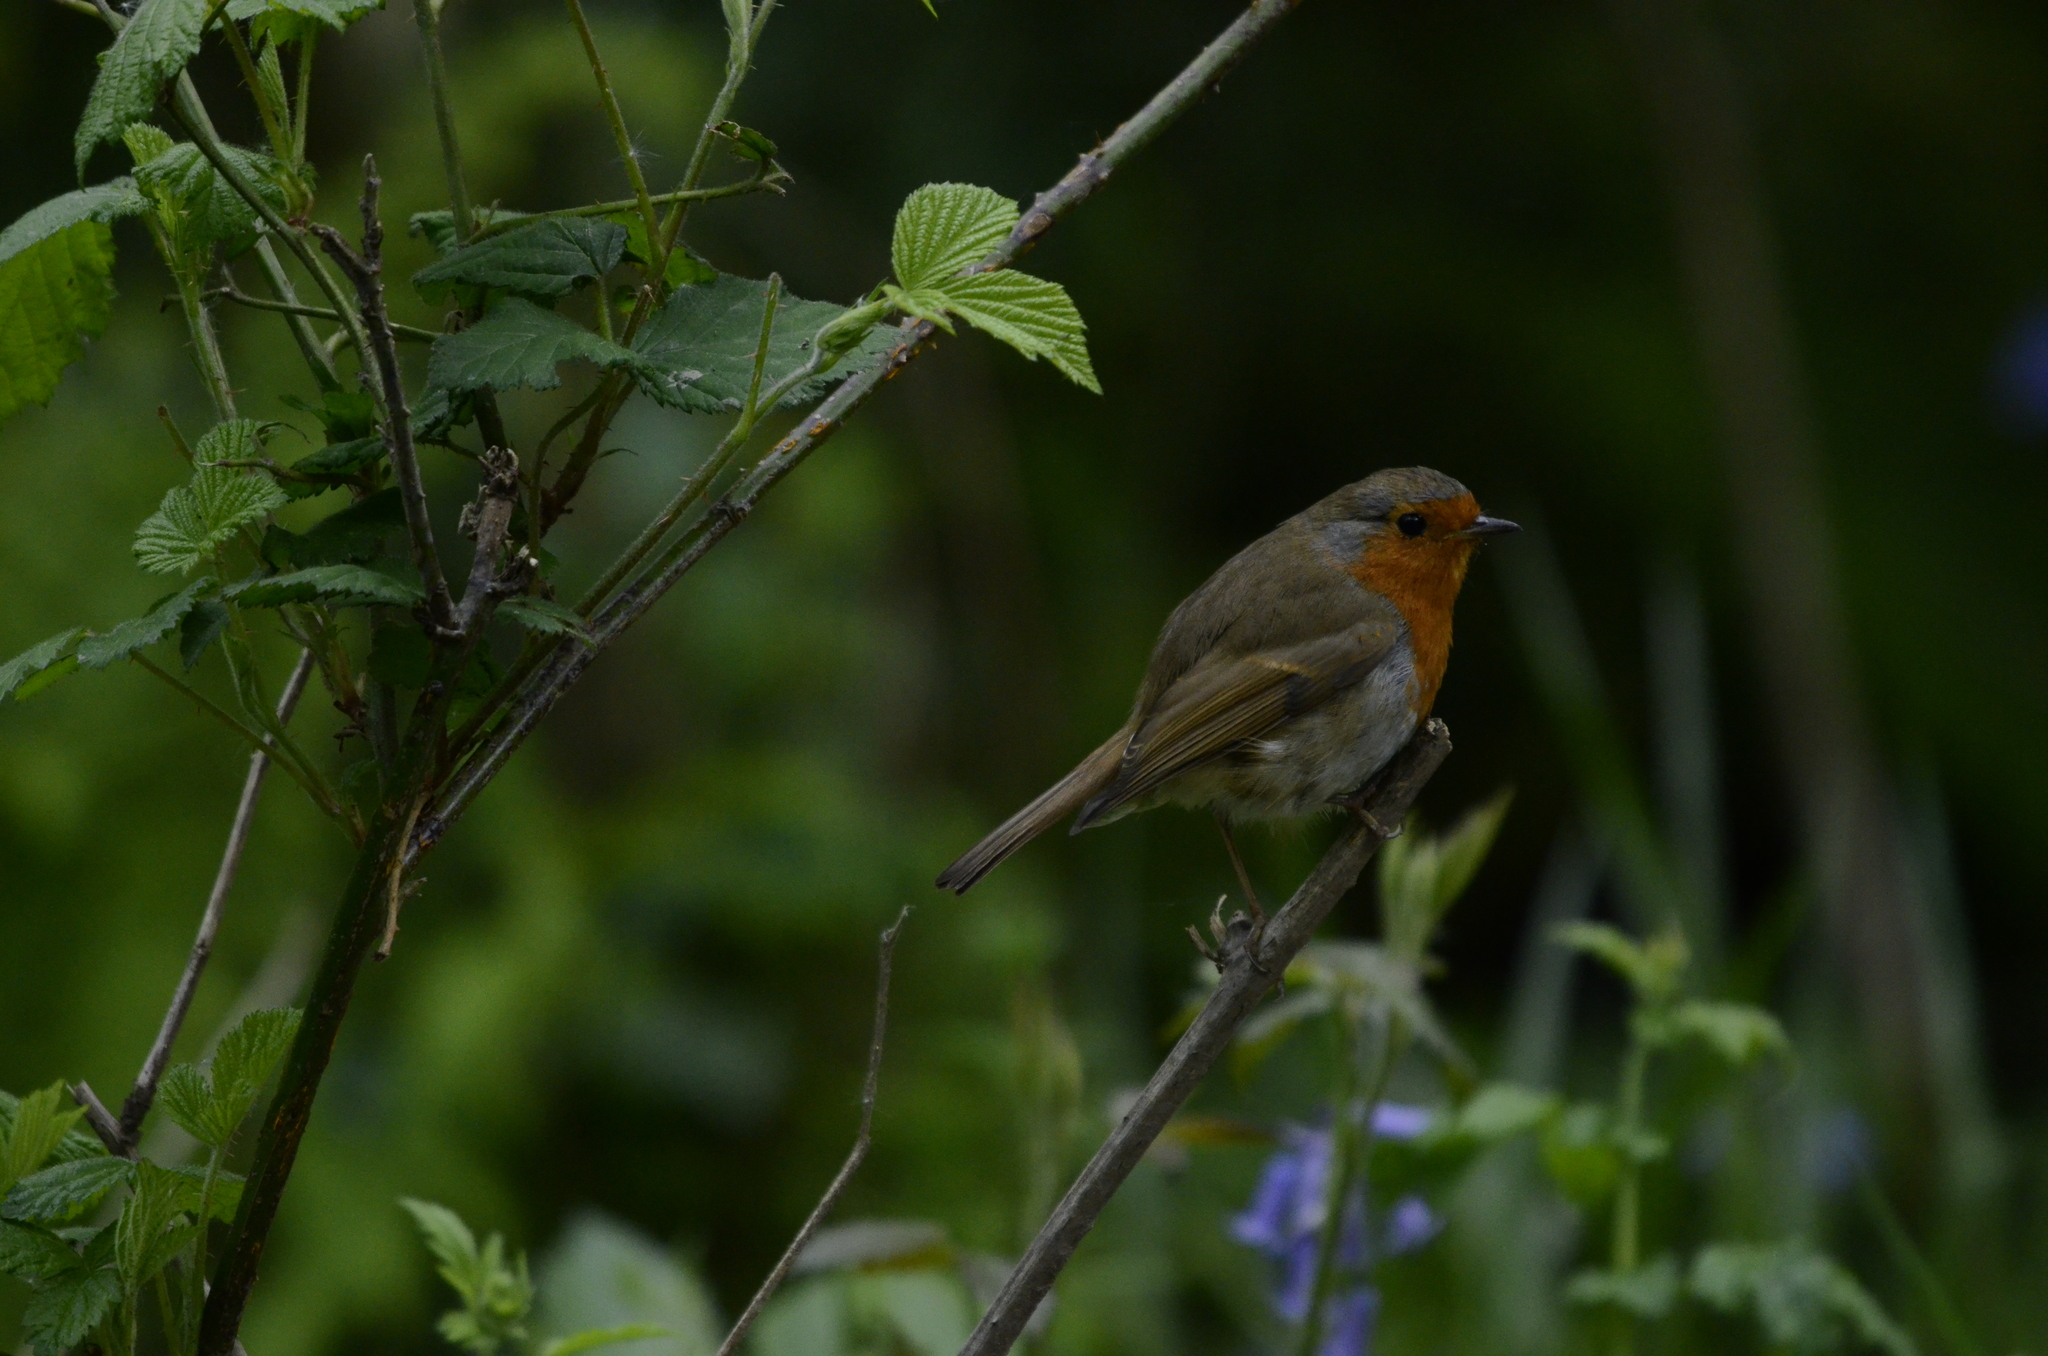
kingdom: Animalia
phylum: Chordata
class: Aves
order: Passeriformes
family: Muscicapidae
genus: Erithacus
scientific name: Erithacus rubecula
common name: European robin
